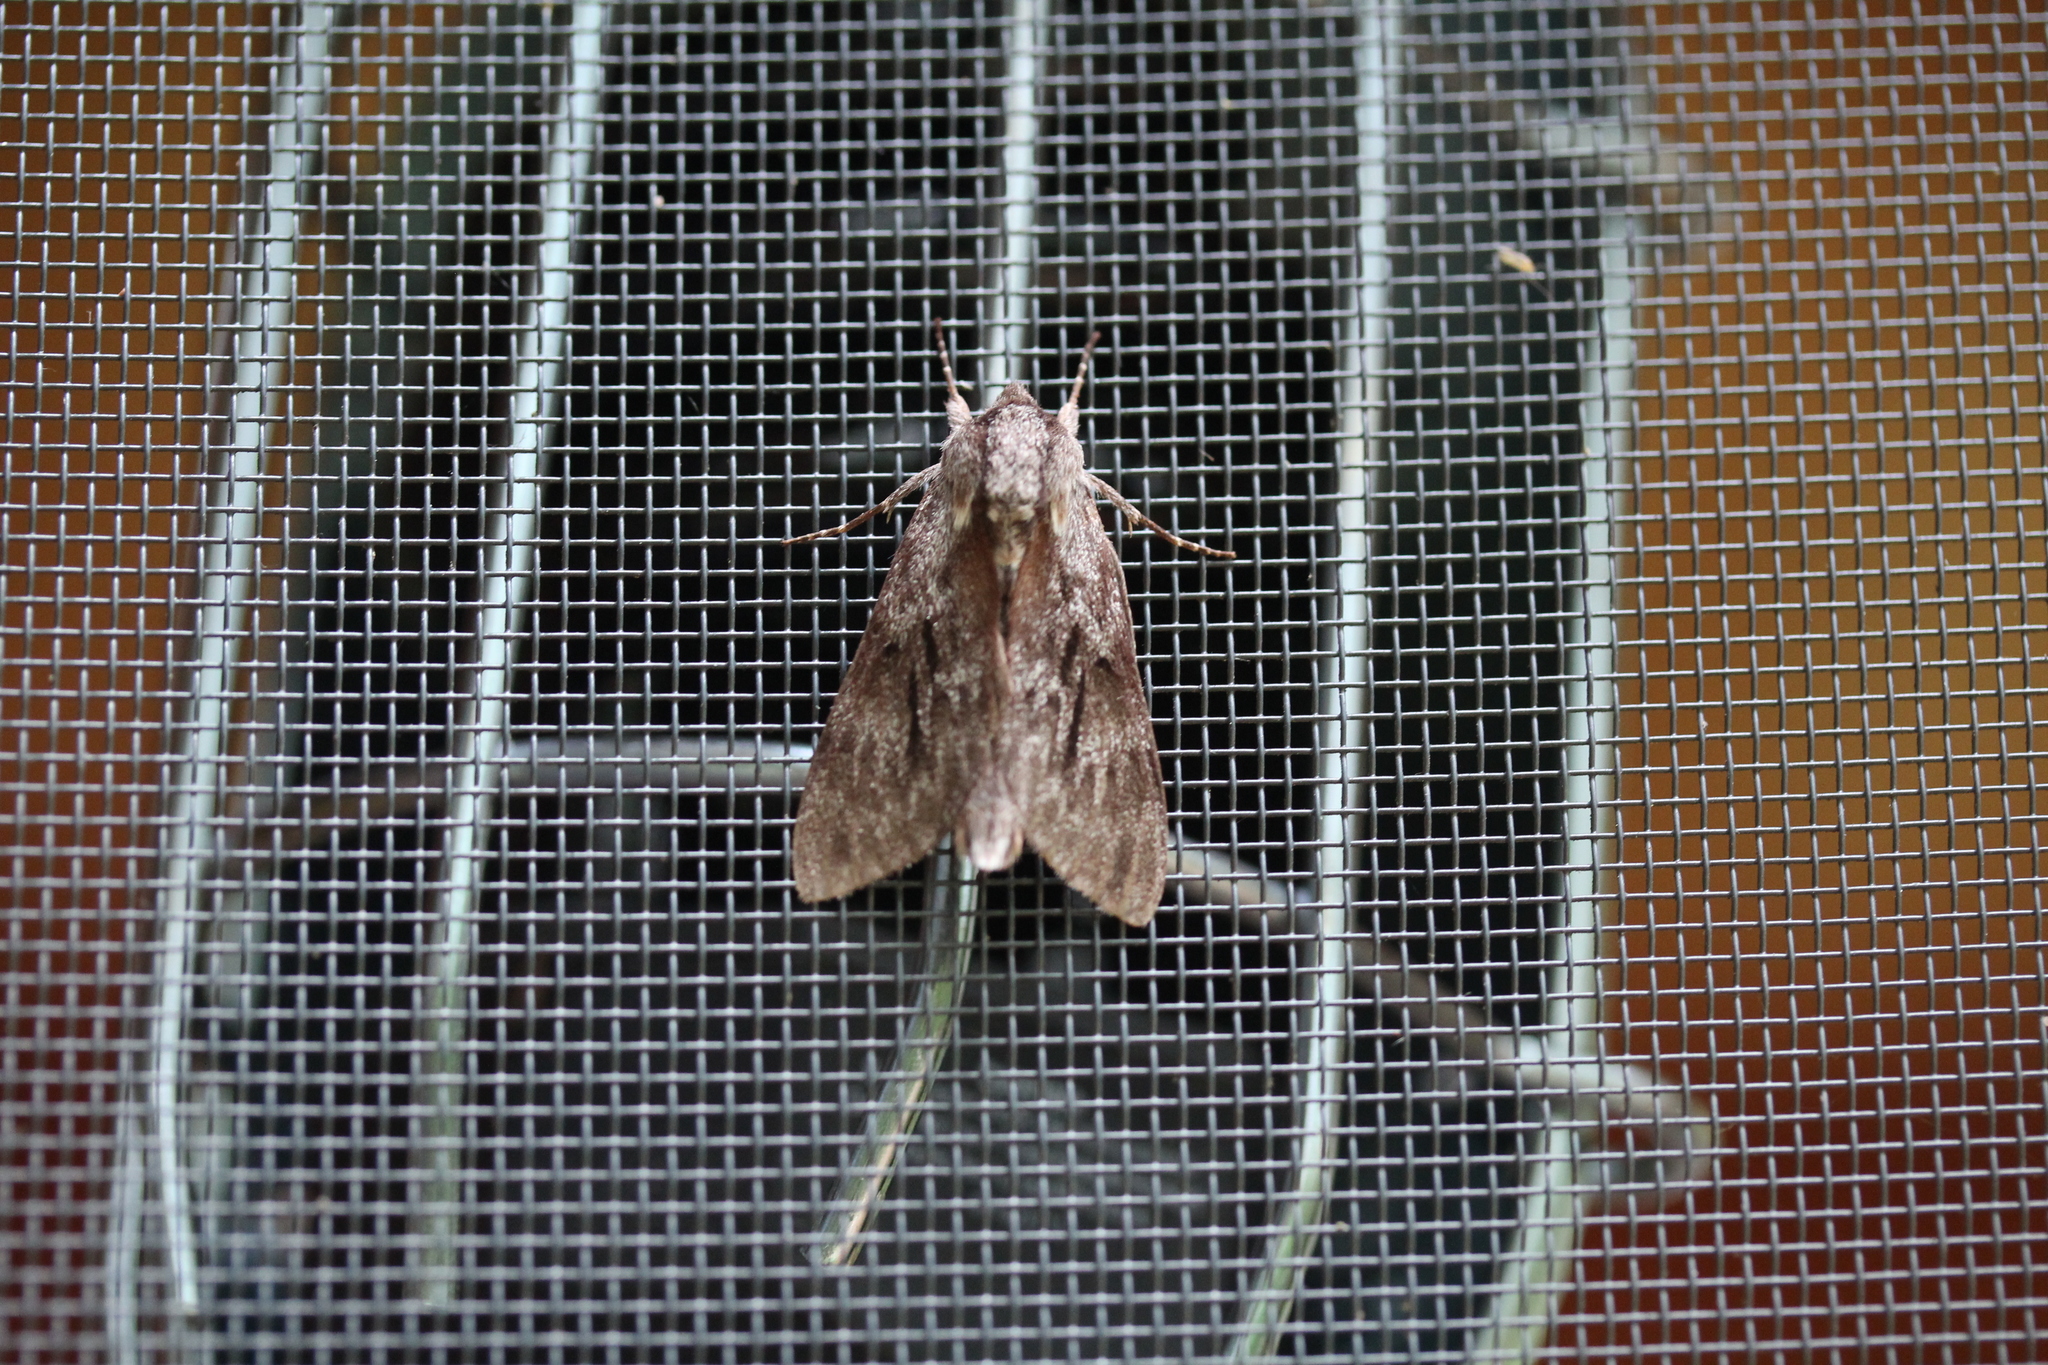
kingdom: Animalia
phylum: Arthropoda
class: Insecta
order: Lepidoptera
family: Sphingidae
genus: Lapara
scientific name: Lapara bombycoides
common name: Northern pine sphinx
